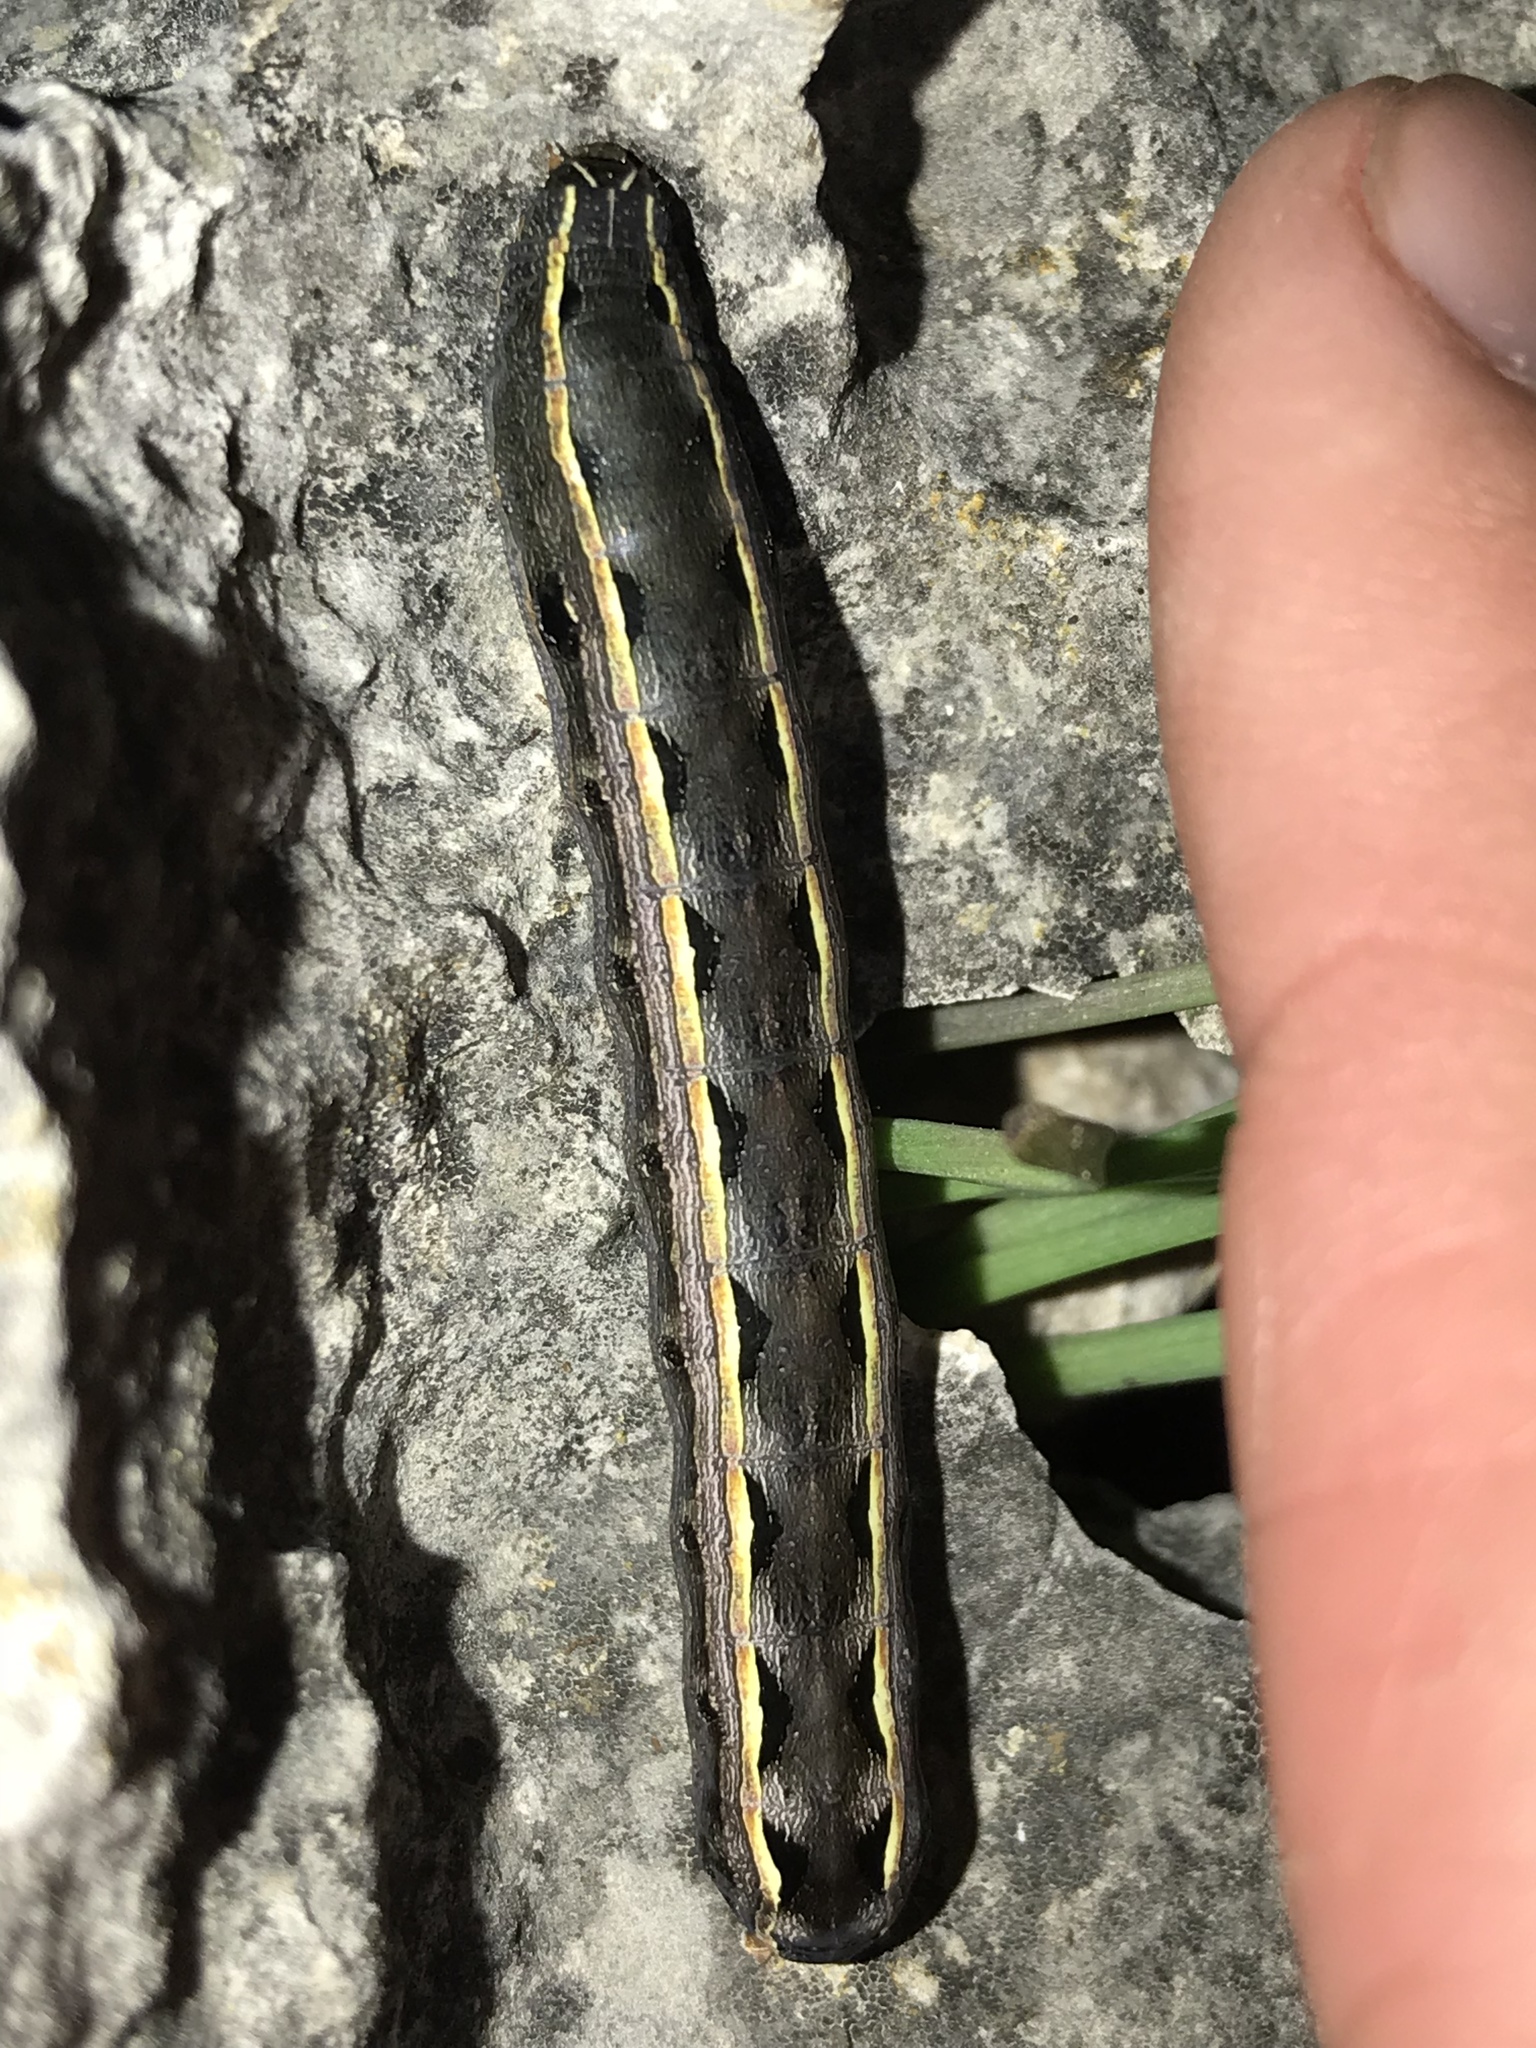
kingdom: Animalia
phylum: Arthropoda
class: Insecta
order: Lepidoptera
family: Noctuidae
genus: Spodoptera
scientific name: Spodoptera ornithogalli
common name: Yellow-striped armyworm
